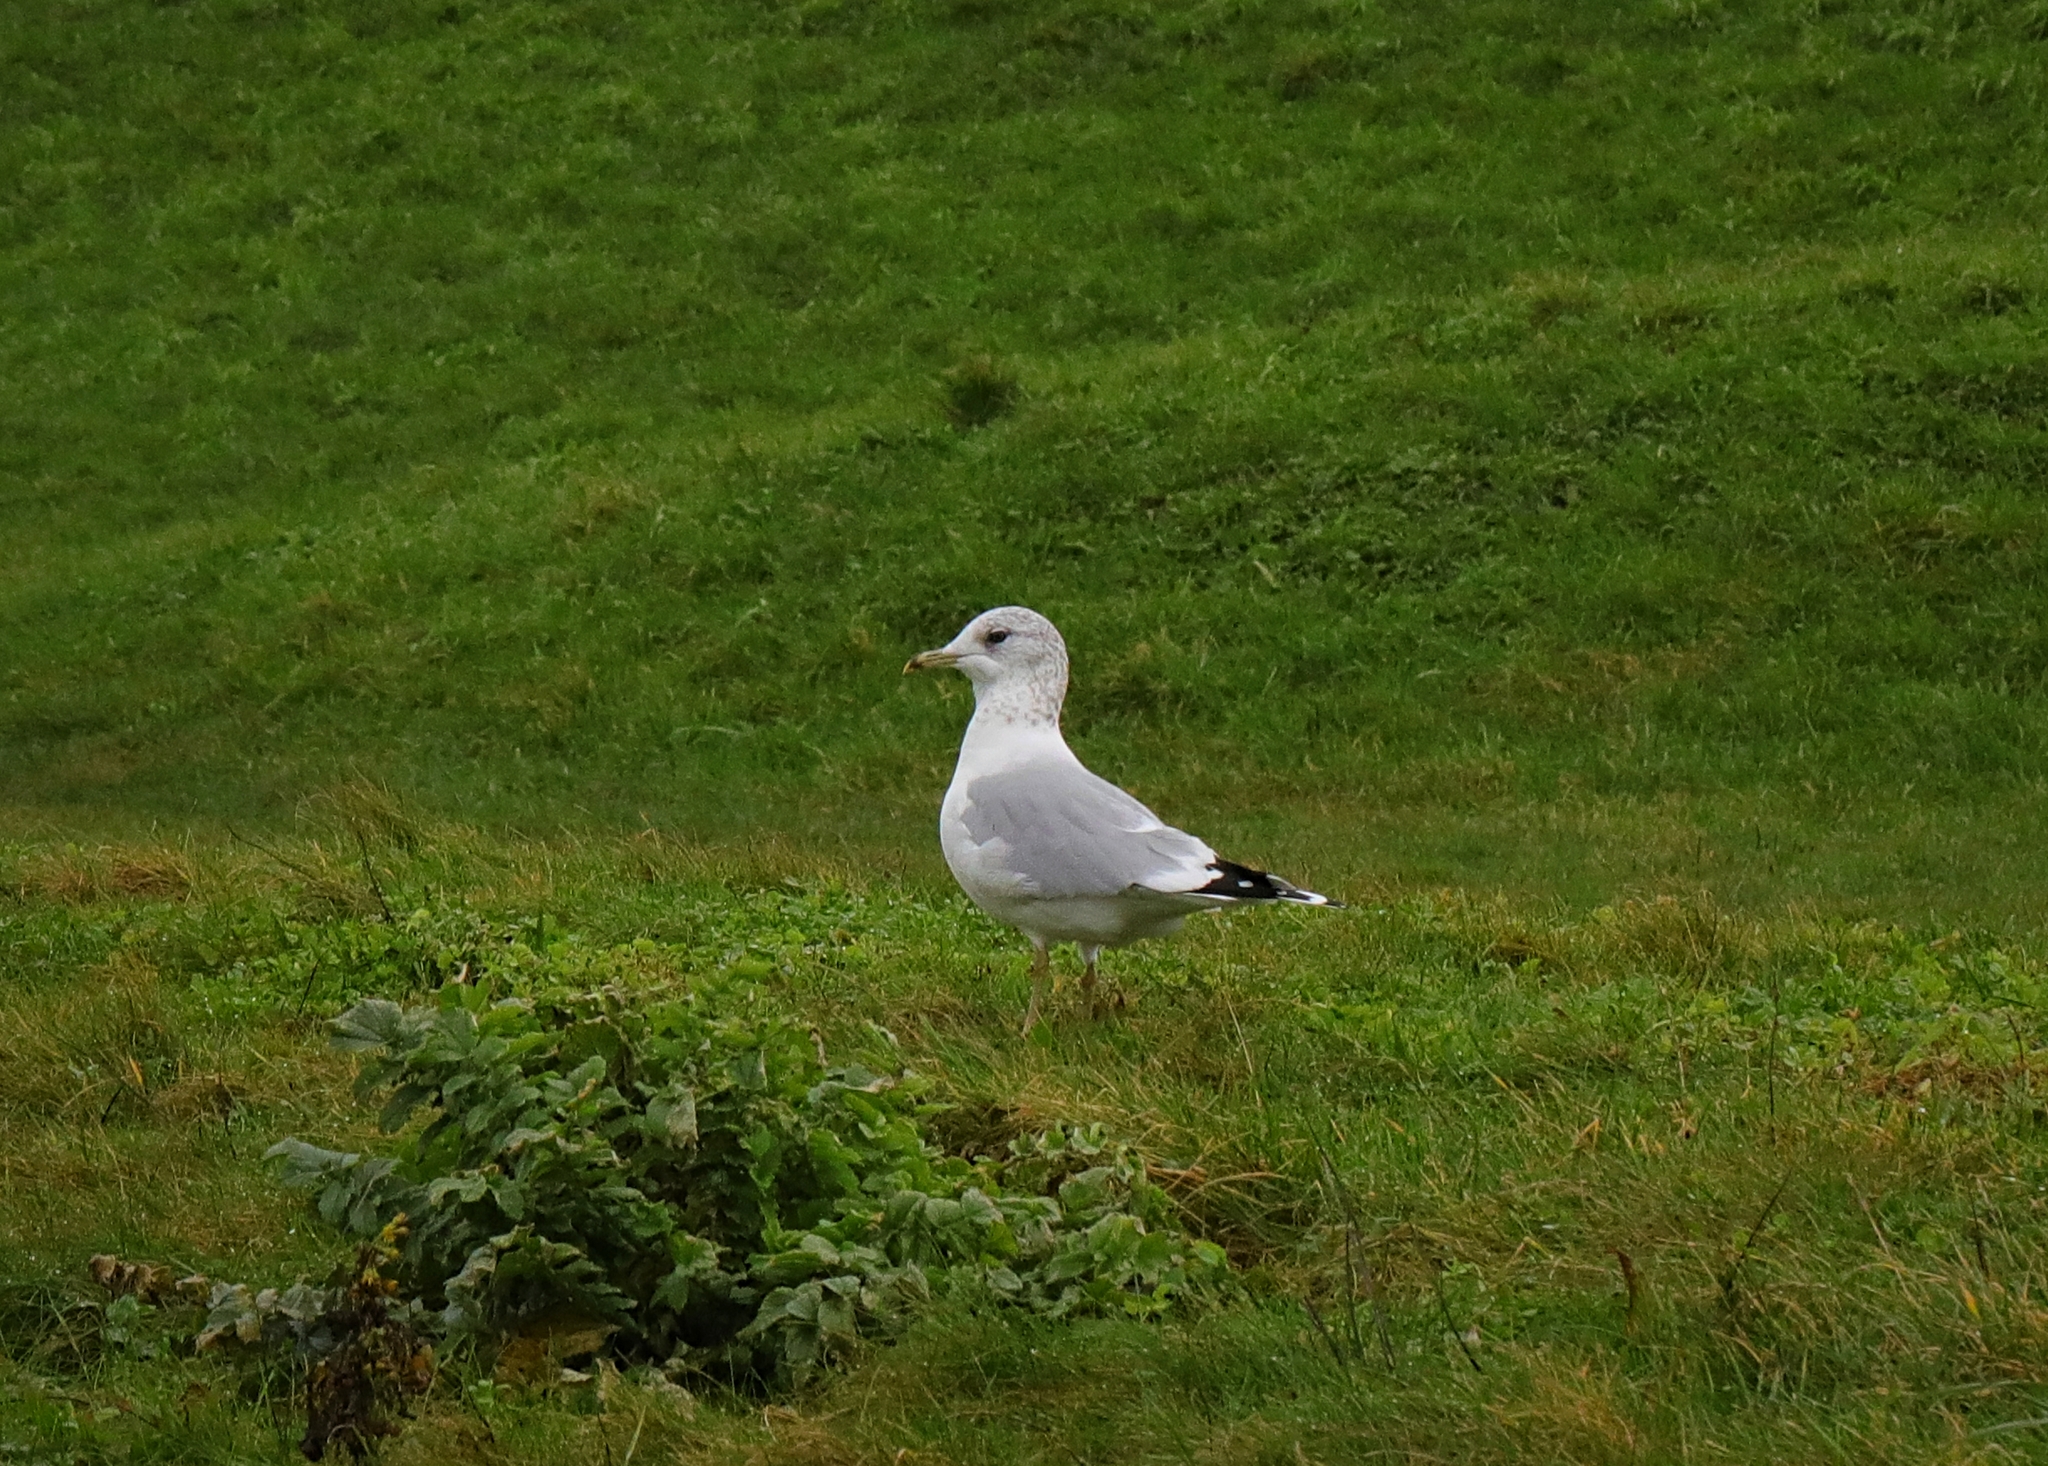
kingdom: Animalia
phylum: Chordata
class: Aves
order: Charadriiformes
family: Laridae
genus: Larus
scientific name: Larus canus
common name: Mew gull
